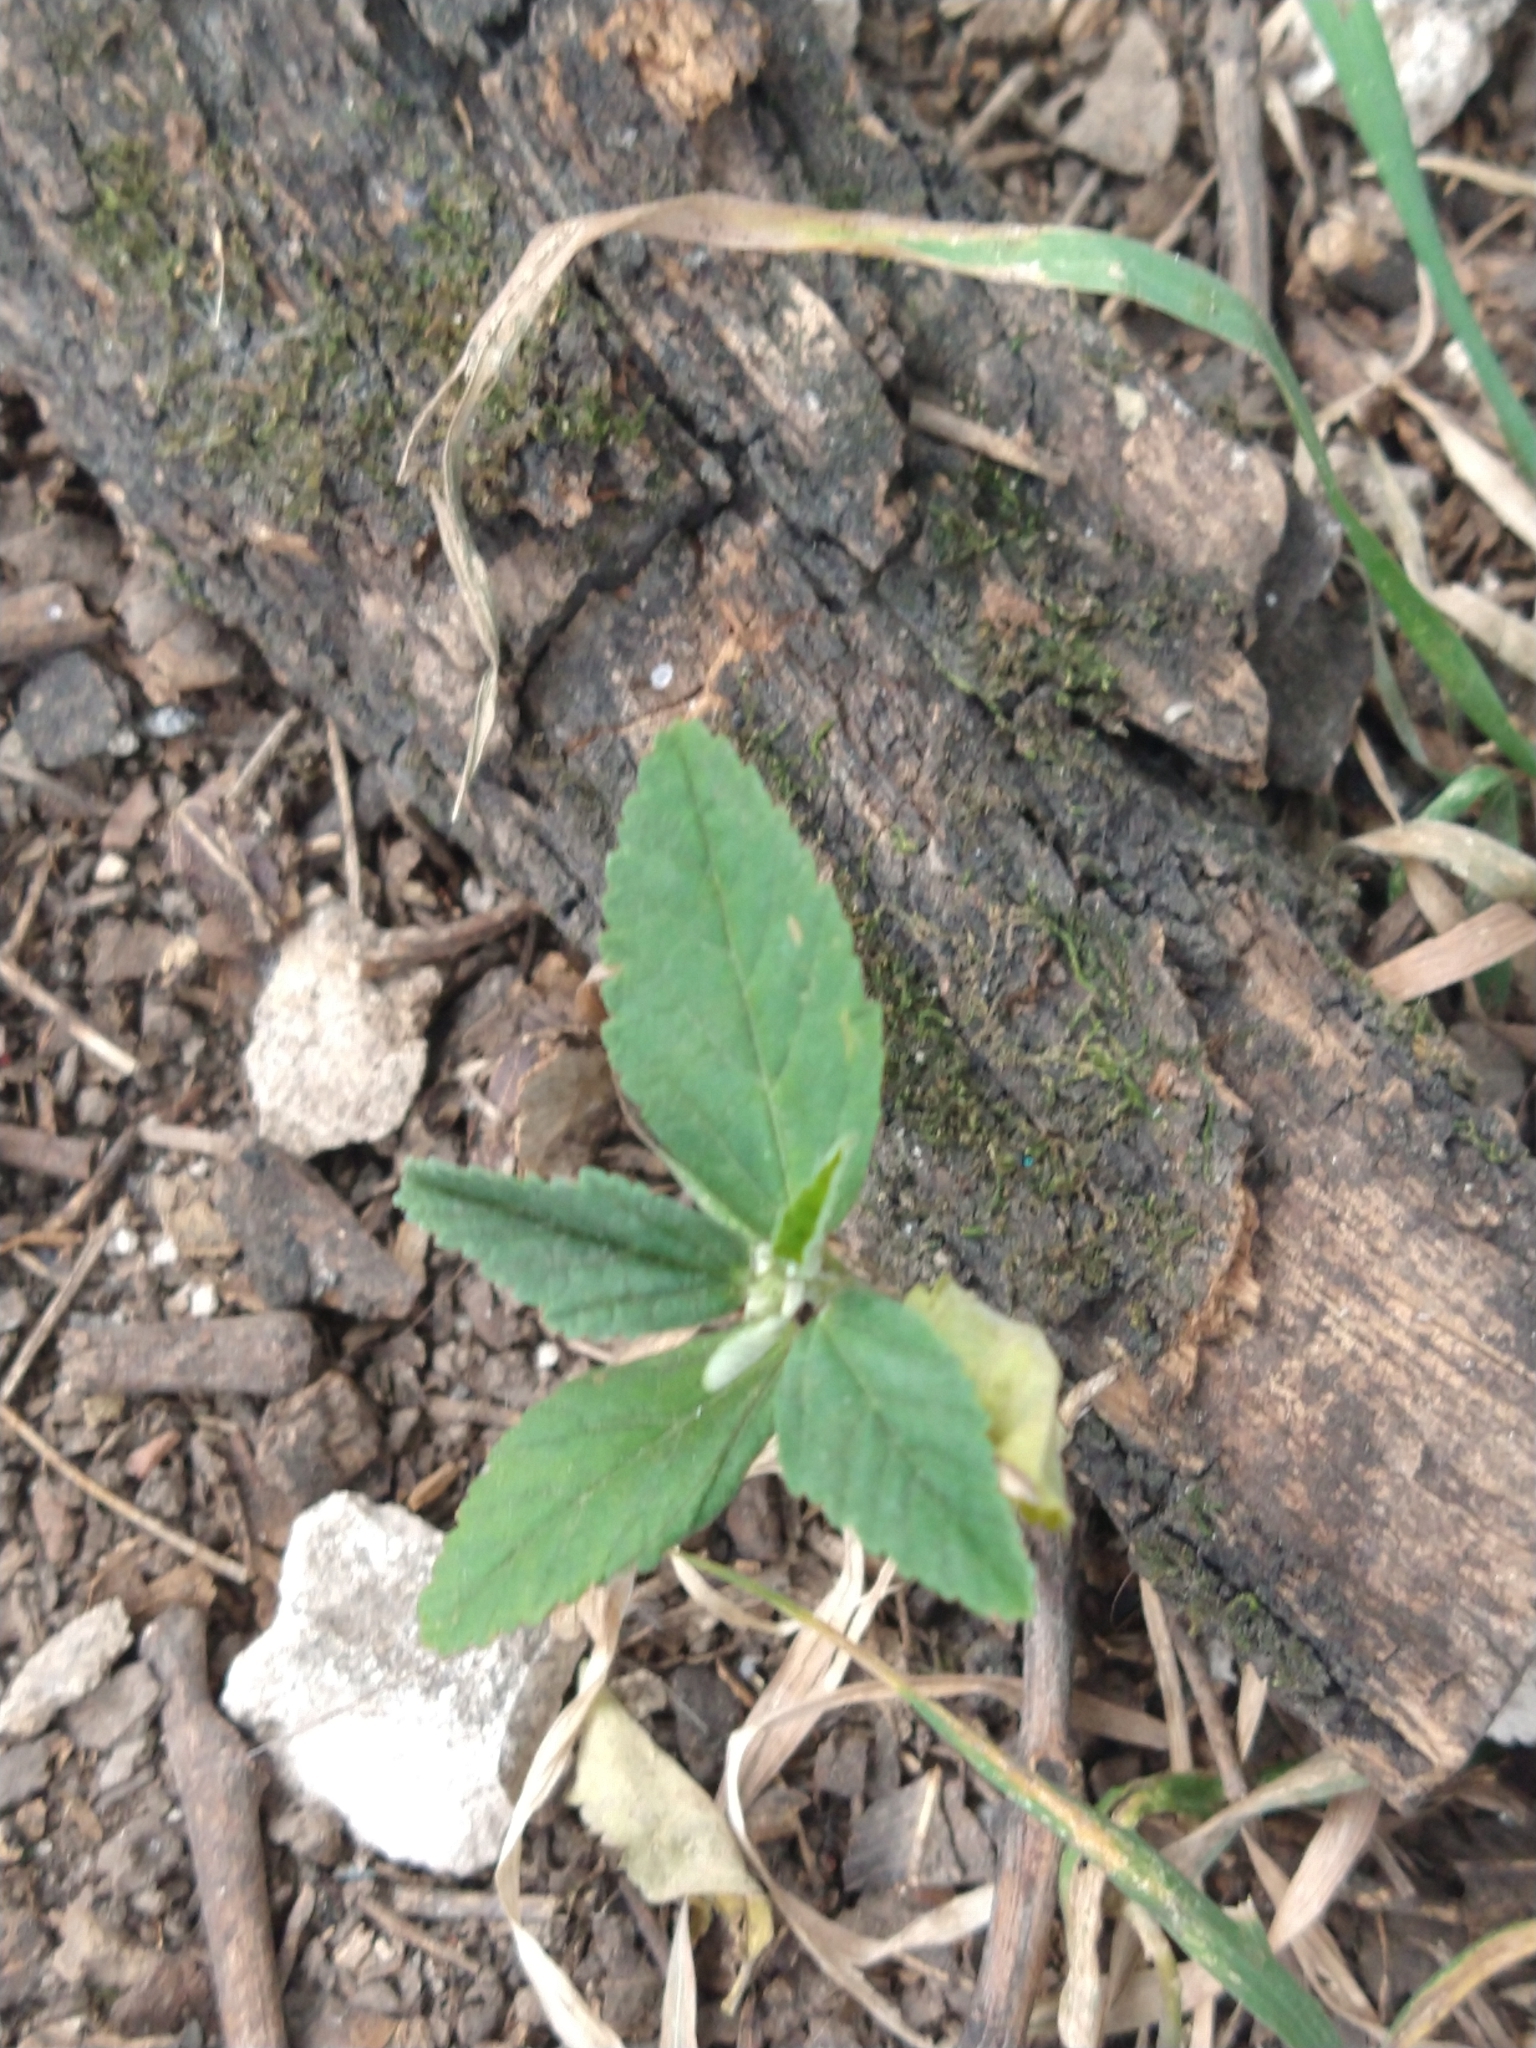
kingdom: Plantae
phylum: Tracheophyta
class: Magnoliopsida
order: Malvales
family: Malvaceae
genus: Sida
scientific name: Sida rhombifolia
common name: Queensland-hemp
